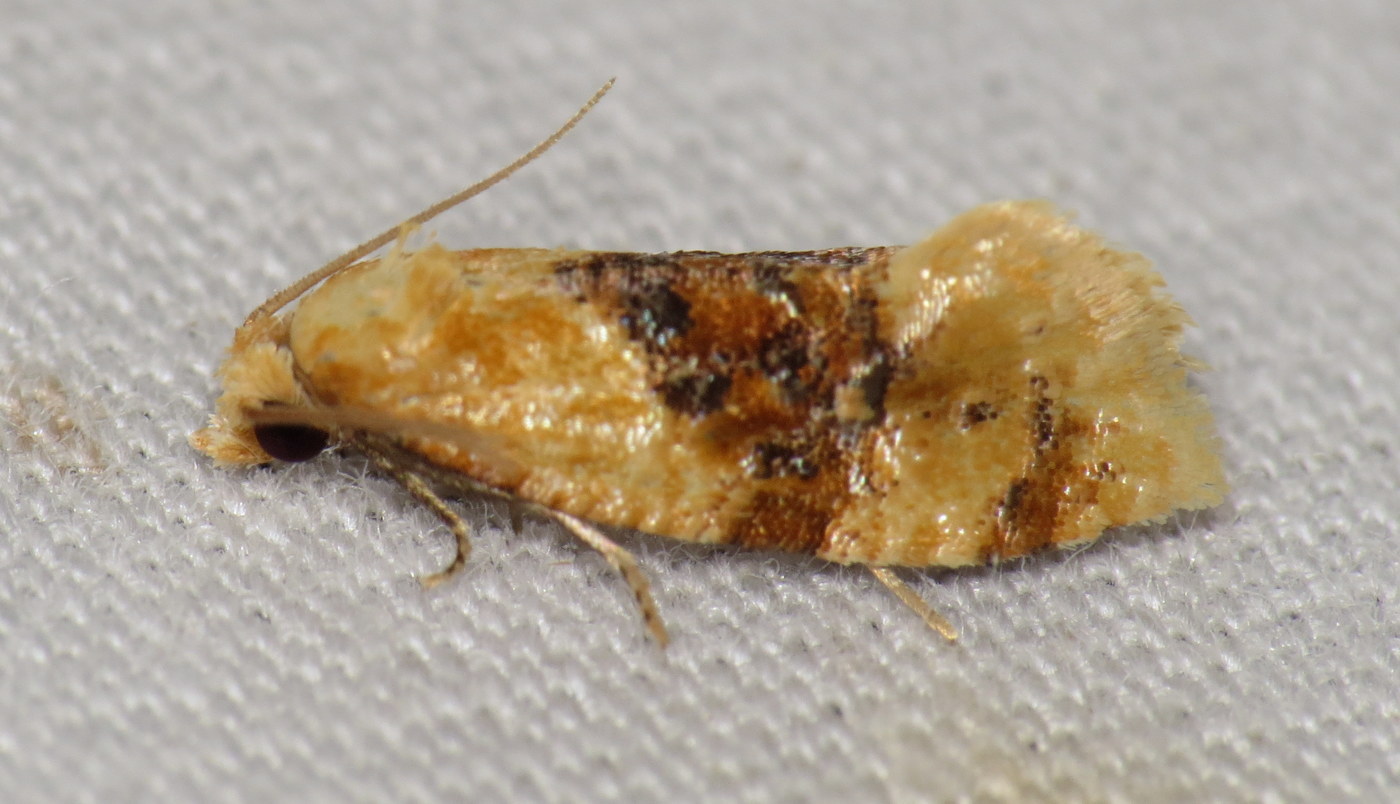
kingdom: Animalia
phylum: Arthropoda
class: Insecta
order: Lepidoptera
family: Tortricidae
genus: Cochylis
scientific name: Cochylis Cochylichroa hospes
